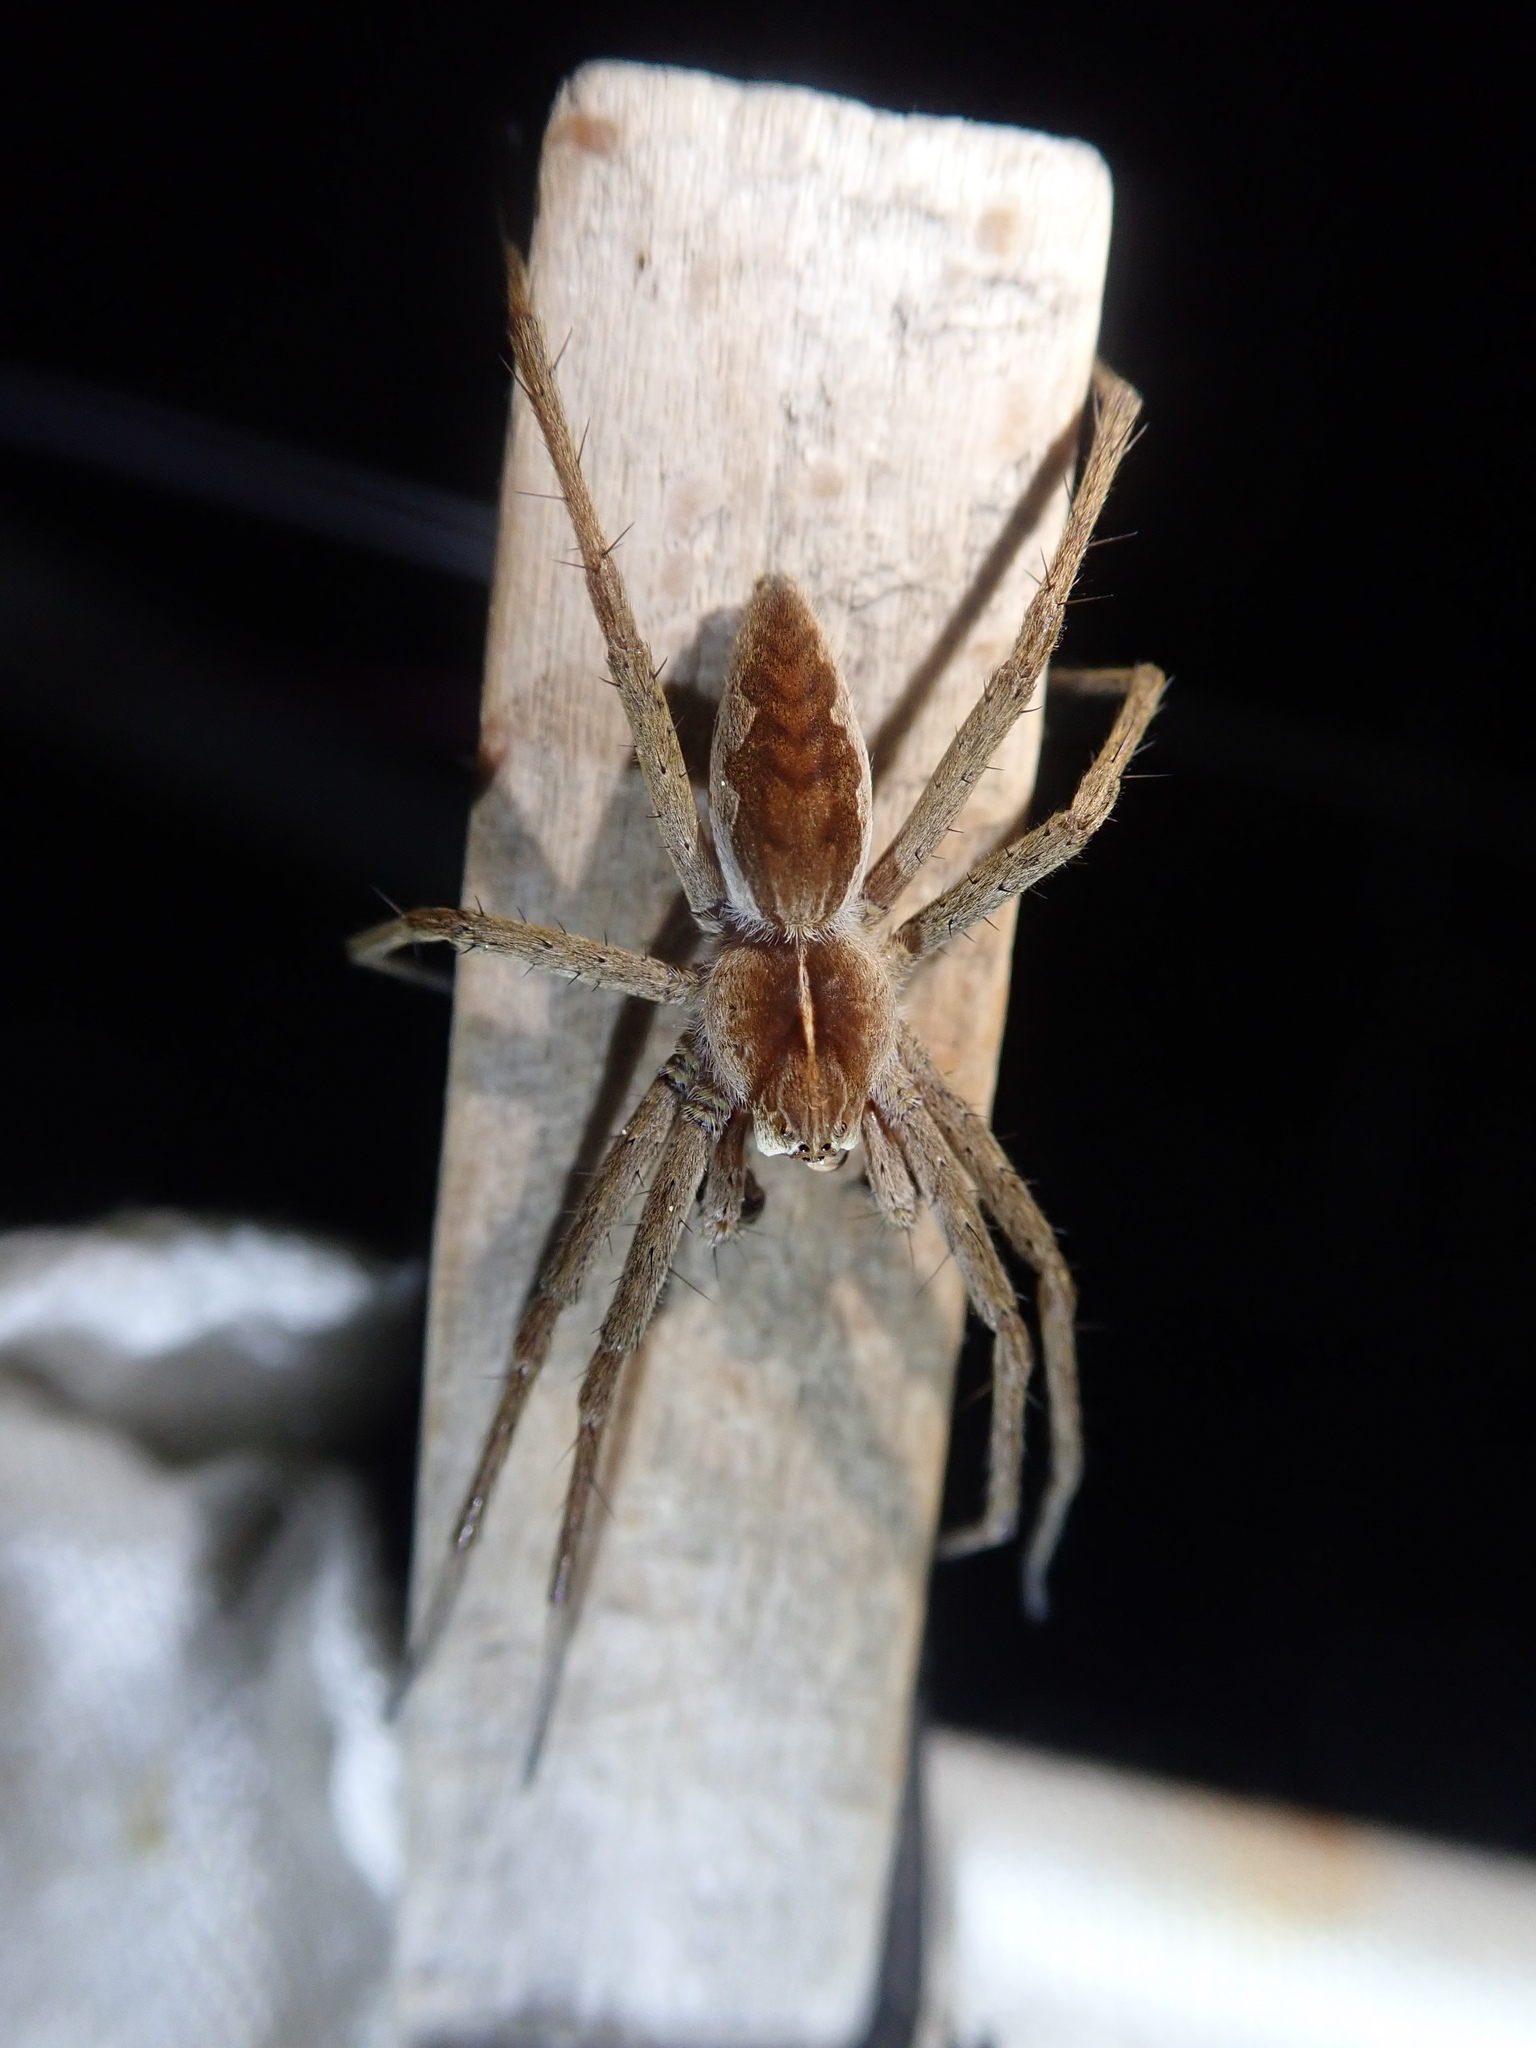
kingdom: Animalia
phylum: Arthropoda
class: Arachnida
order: Araneae
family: Pisauridae
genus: Pisaura
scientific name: Pisaura mirabilis
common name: Tent spider
